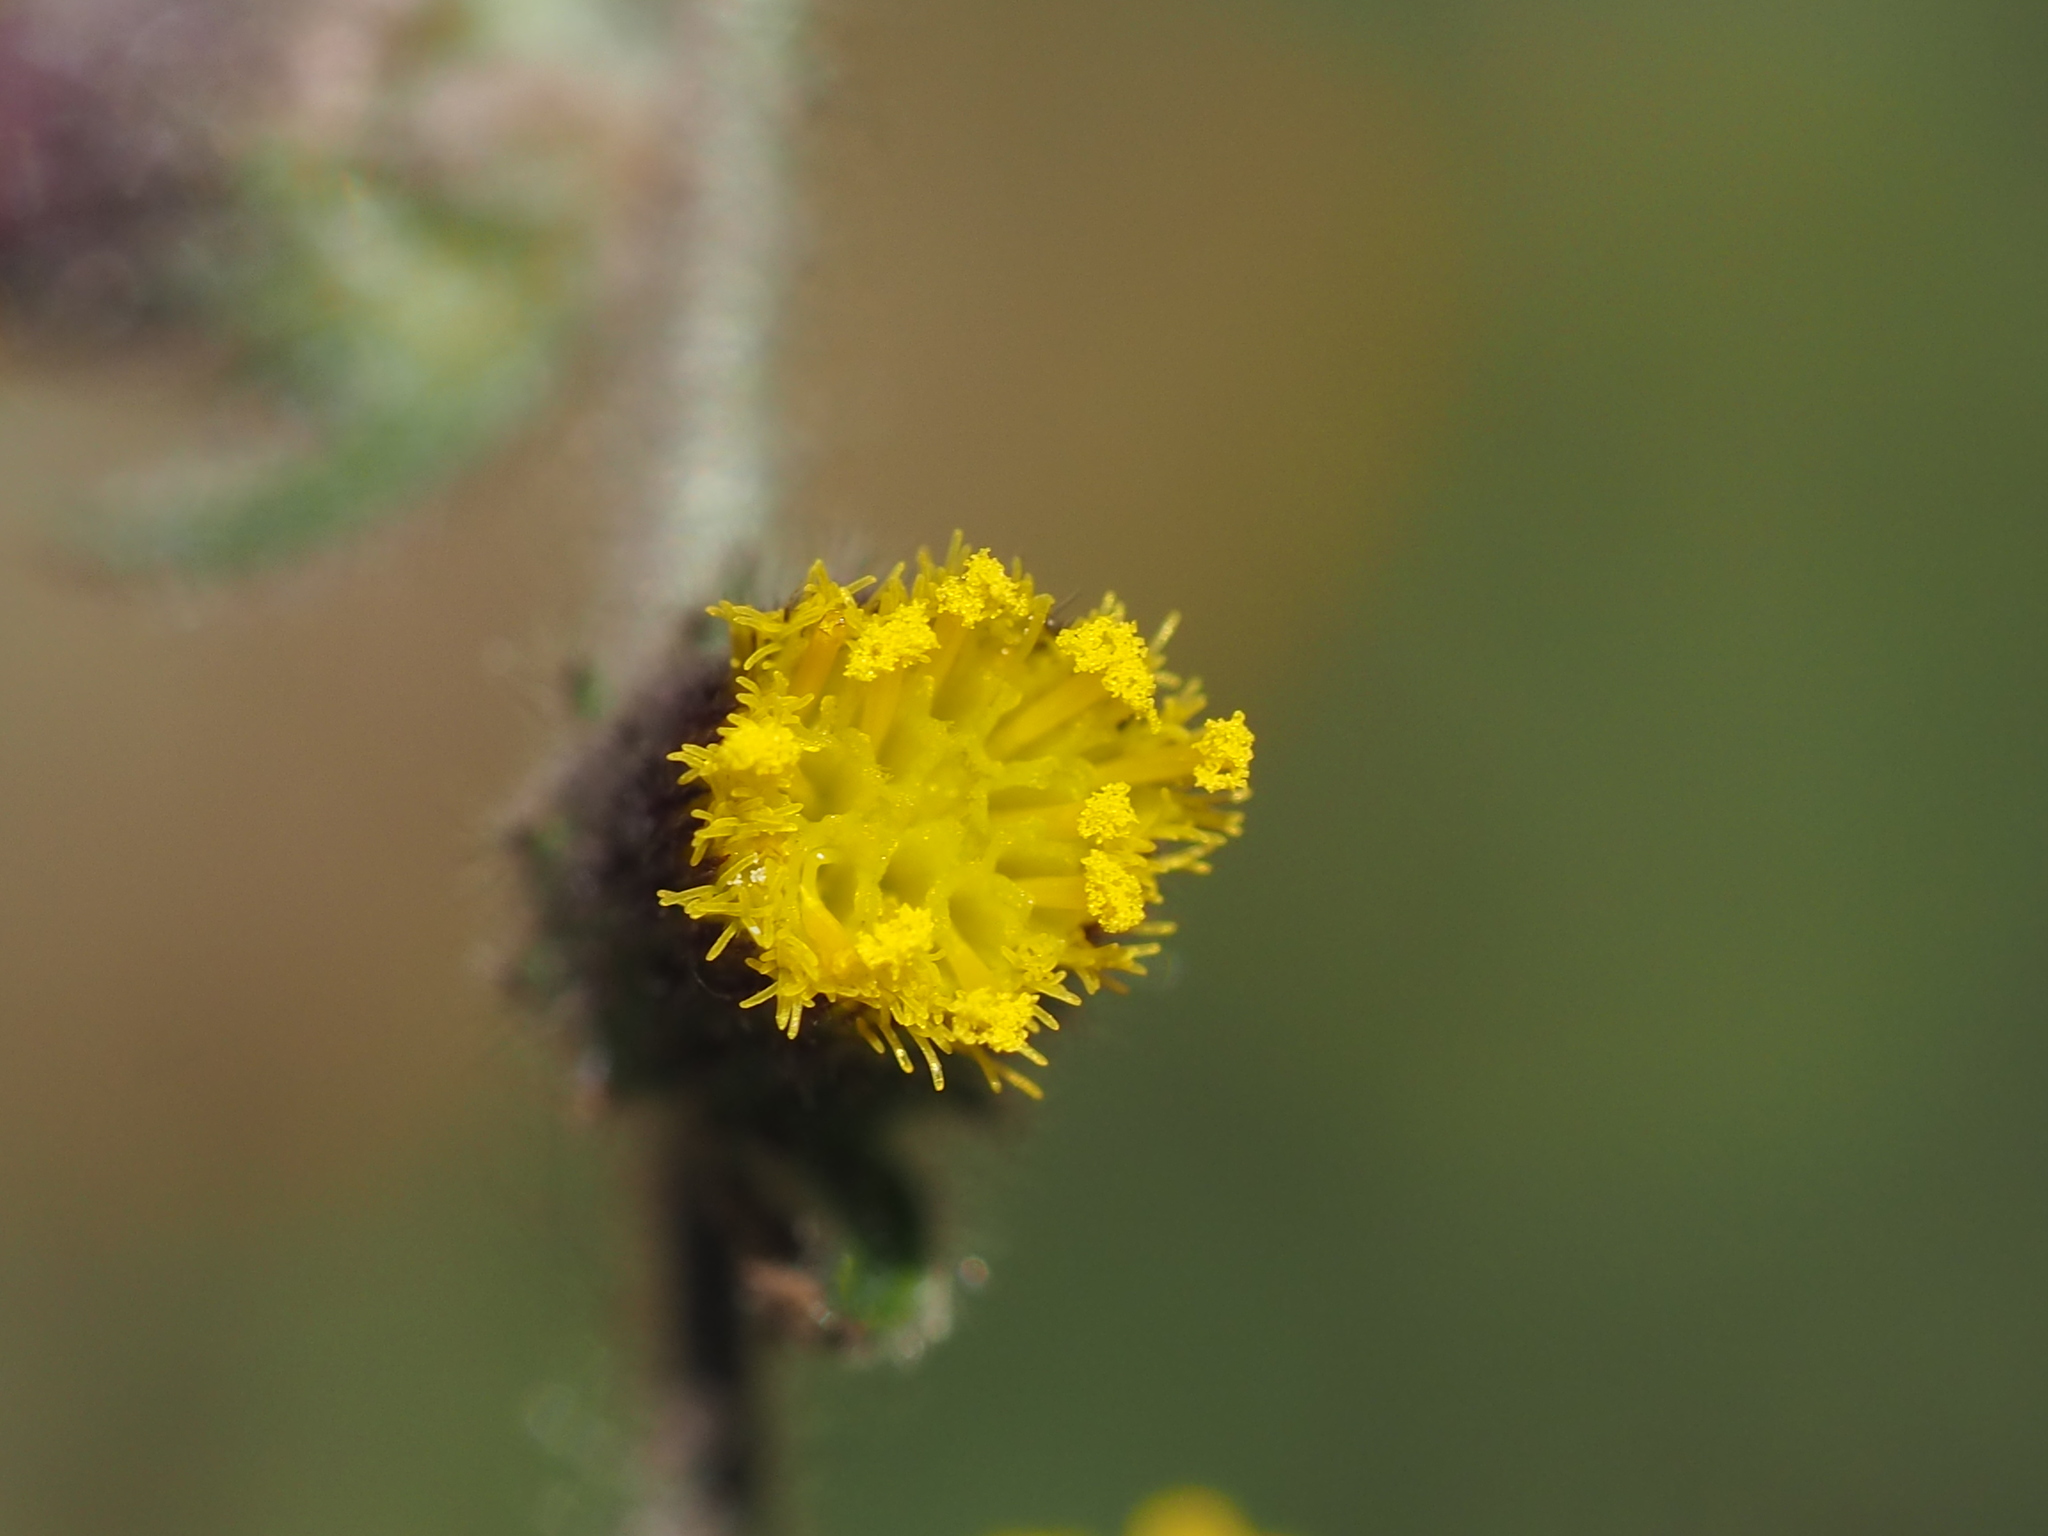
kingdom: Plantae
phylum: Tracheophyta
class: Magnoliopsida
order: Asterales
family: Asteraceae
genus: Blumea
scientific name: Blumea sinuata
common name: Cutleaf false oxtongue
